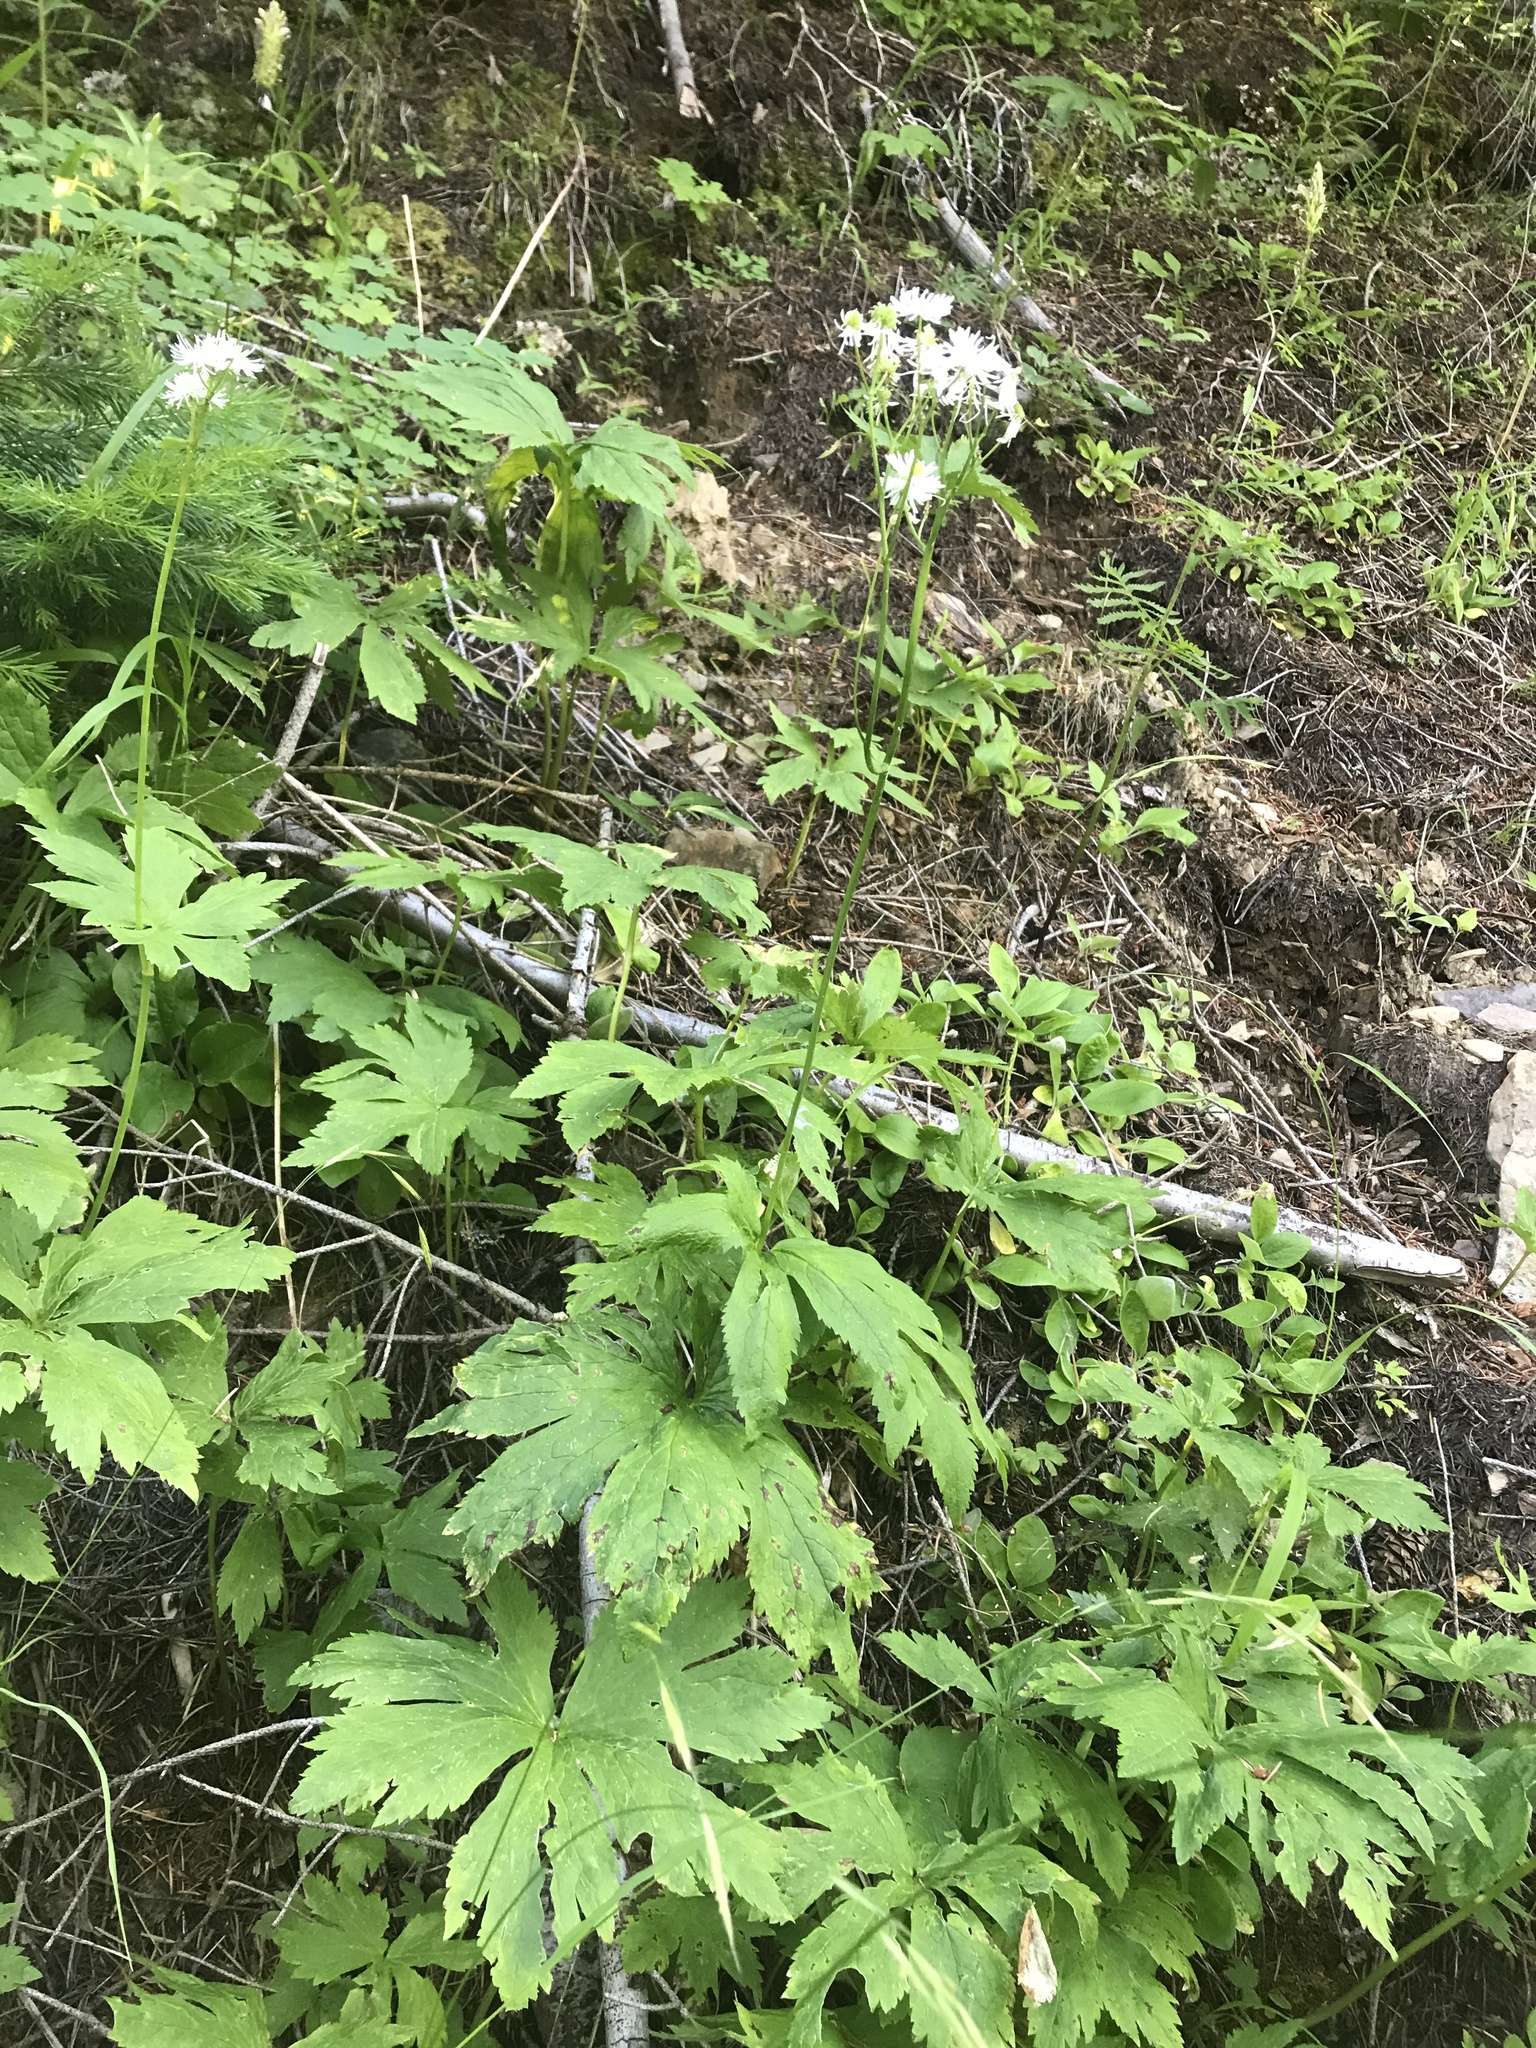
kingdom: Plantae
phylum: Tracheophyta
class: Magnoliopsida
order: Ranunculales
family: Ranunculaceae
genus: Trautvetteria
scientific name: Trautvetteria carolinensis
